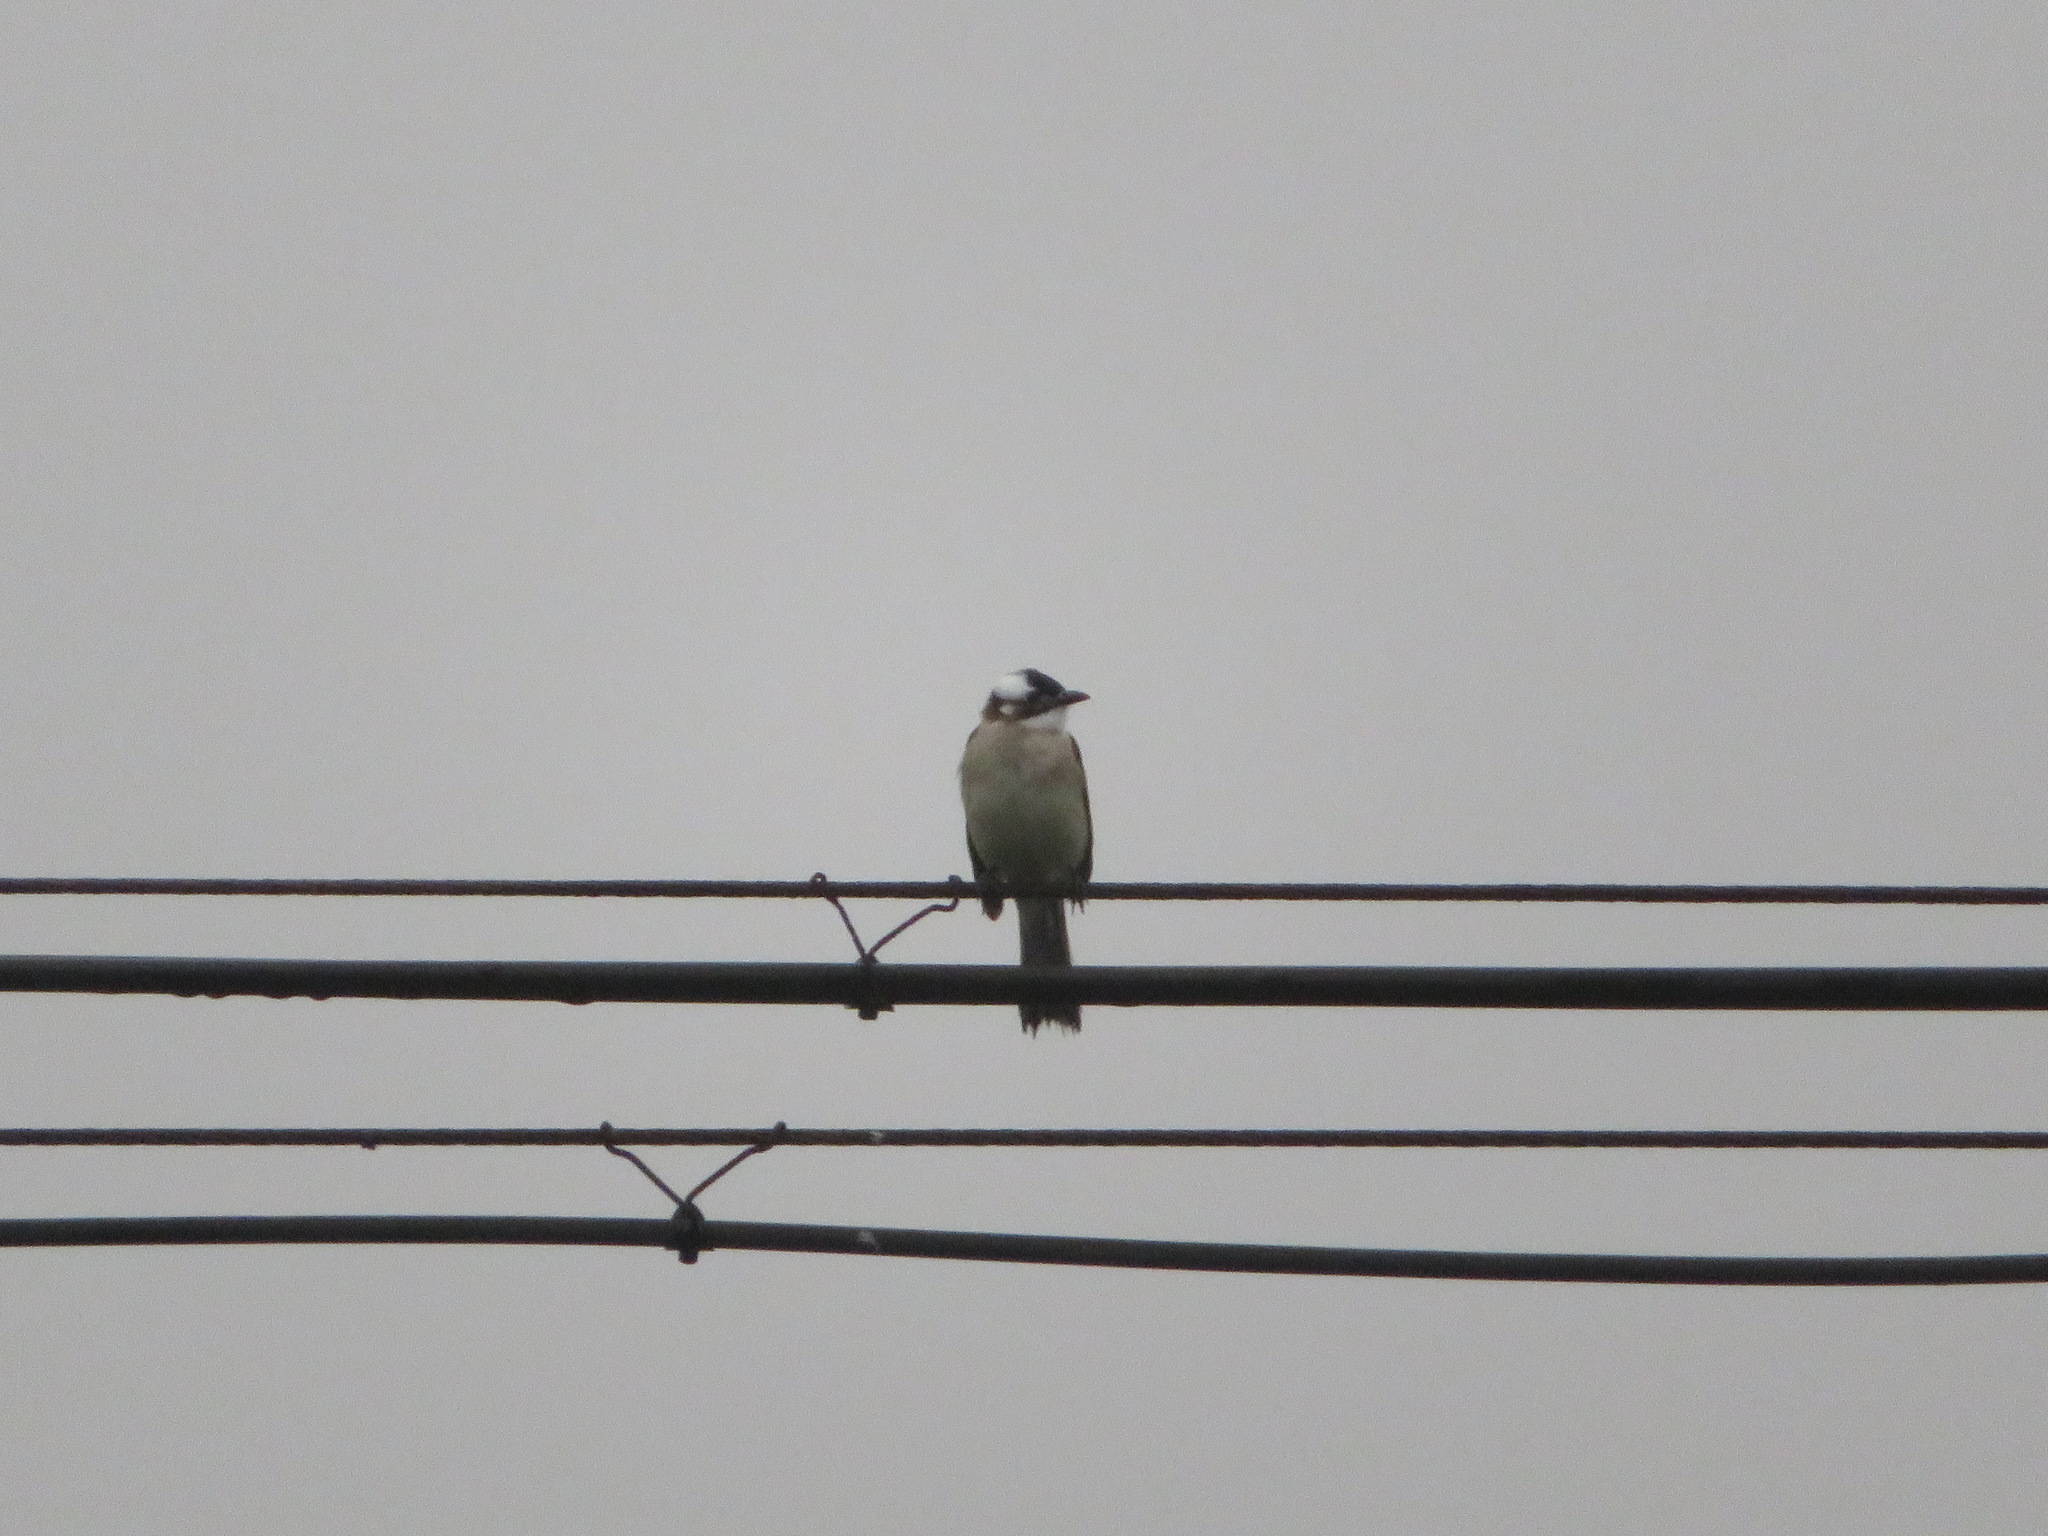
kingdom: Animalia
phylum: Chordata
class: Aves
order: Passeriformes
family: Pycnonotidae
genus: Pycnonotus
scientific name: Pycnonotus sinensis
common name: Light-vented bulbul
